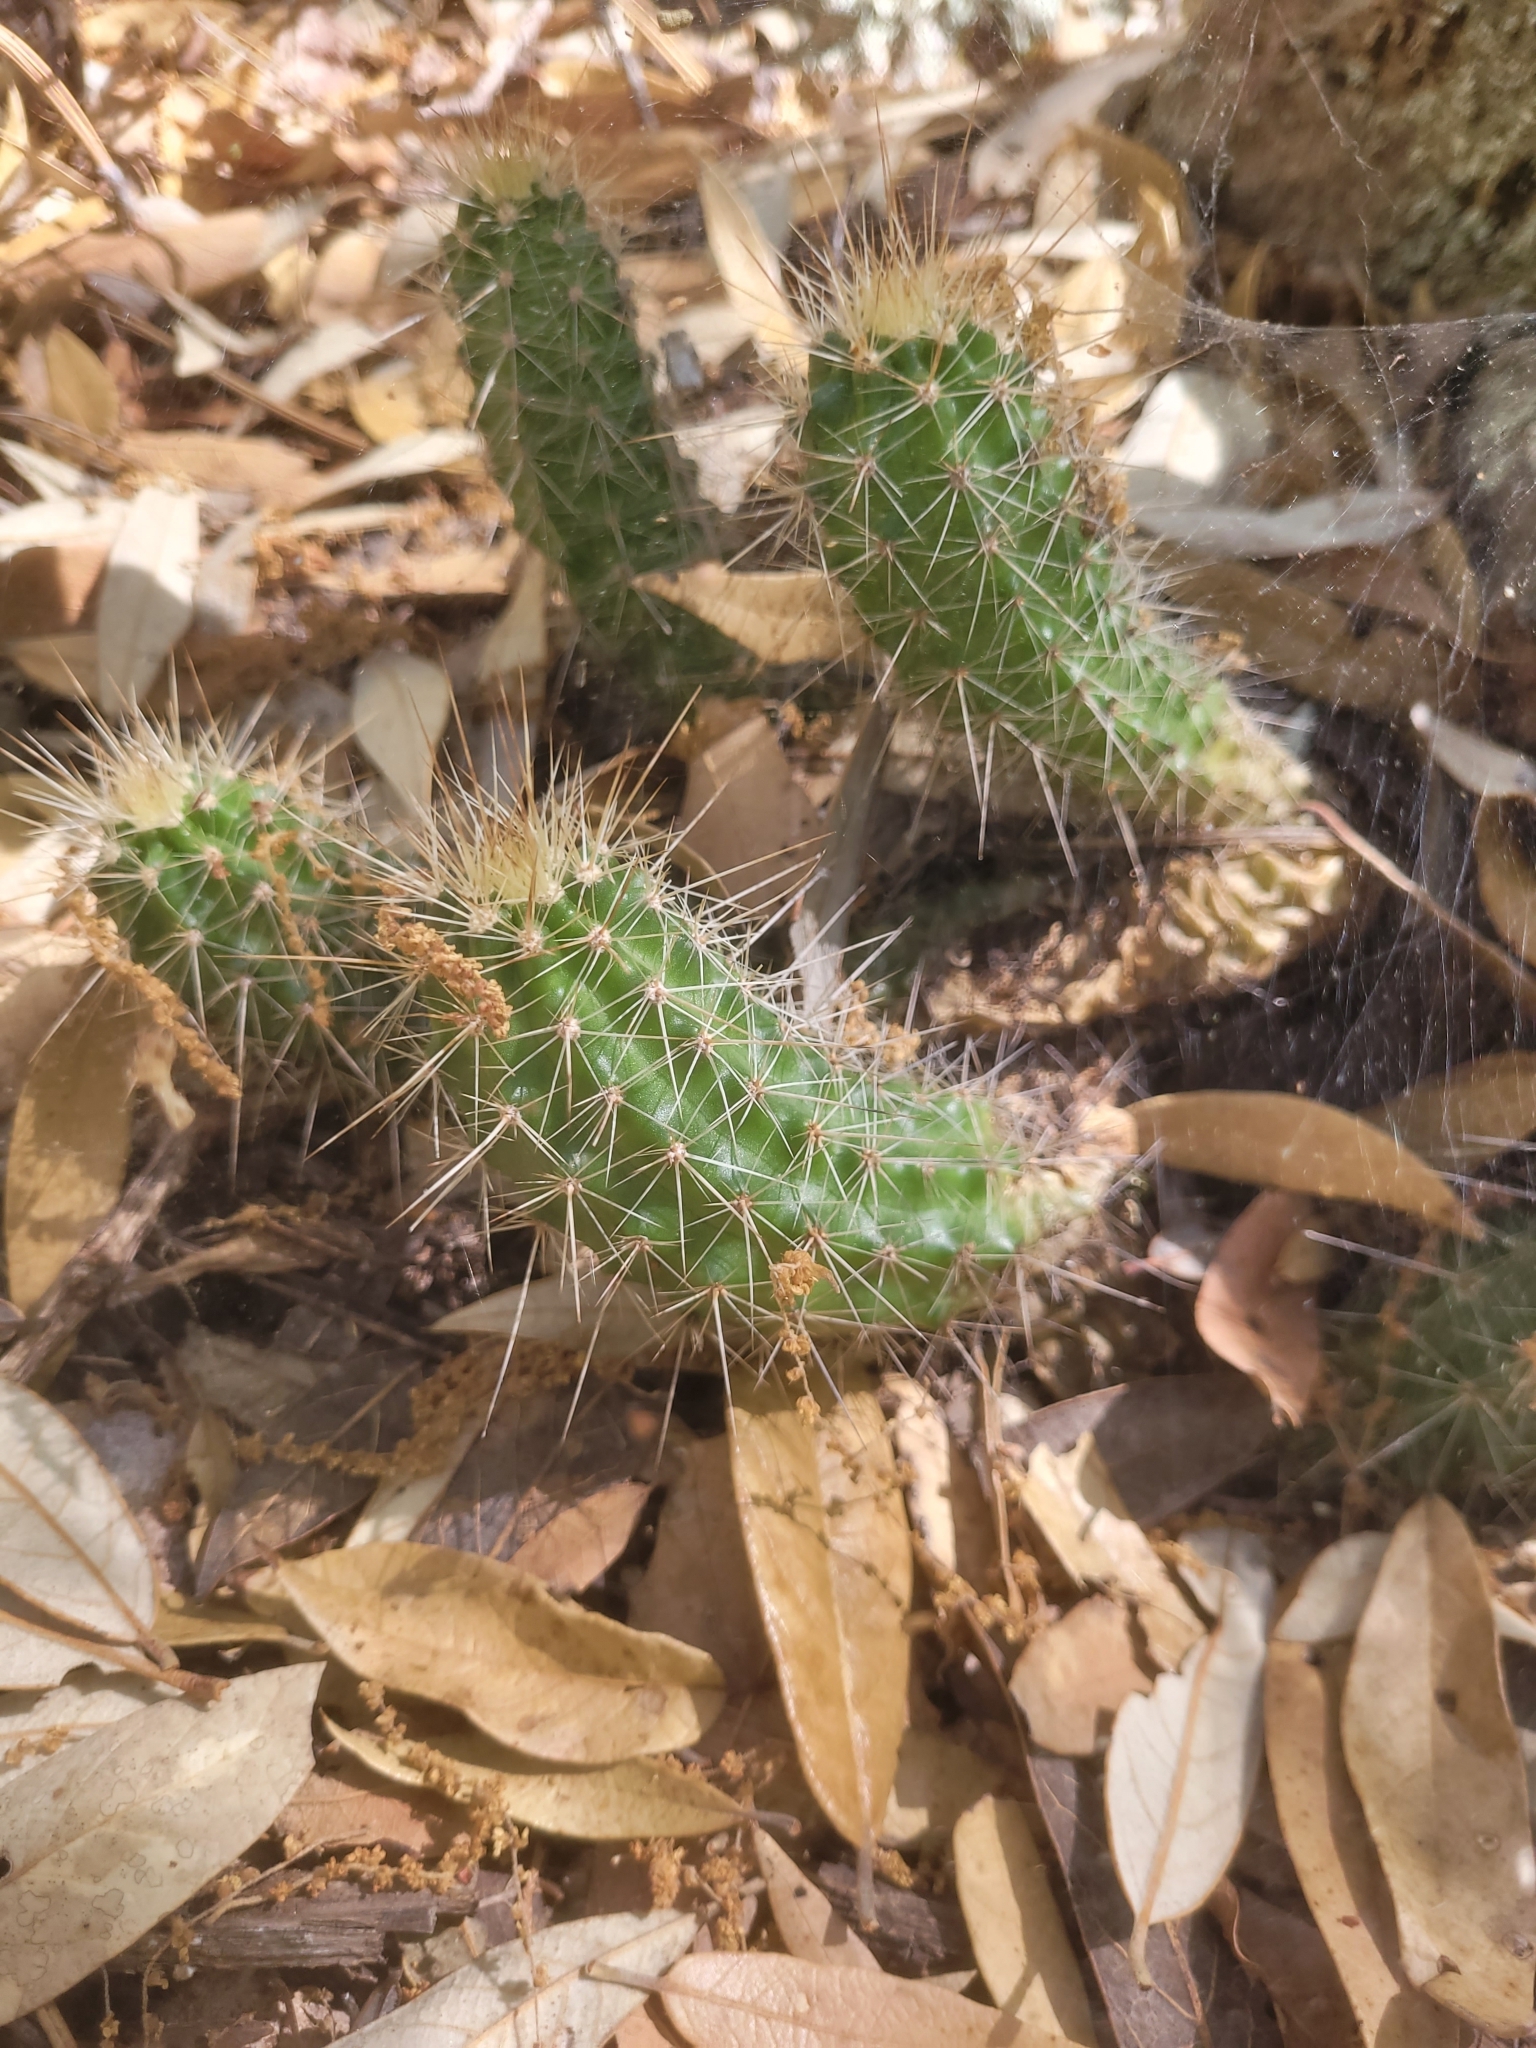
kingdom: Plantae
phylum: Tracheophyta
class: Magnoliopsida
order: Caryophyllales
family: Cactaceae
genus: Echinocereus
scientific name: Echinocereus coccineus
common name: Scarlet hedgehog cactus
